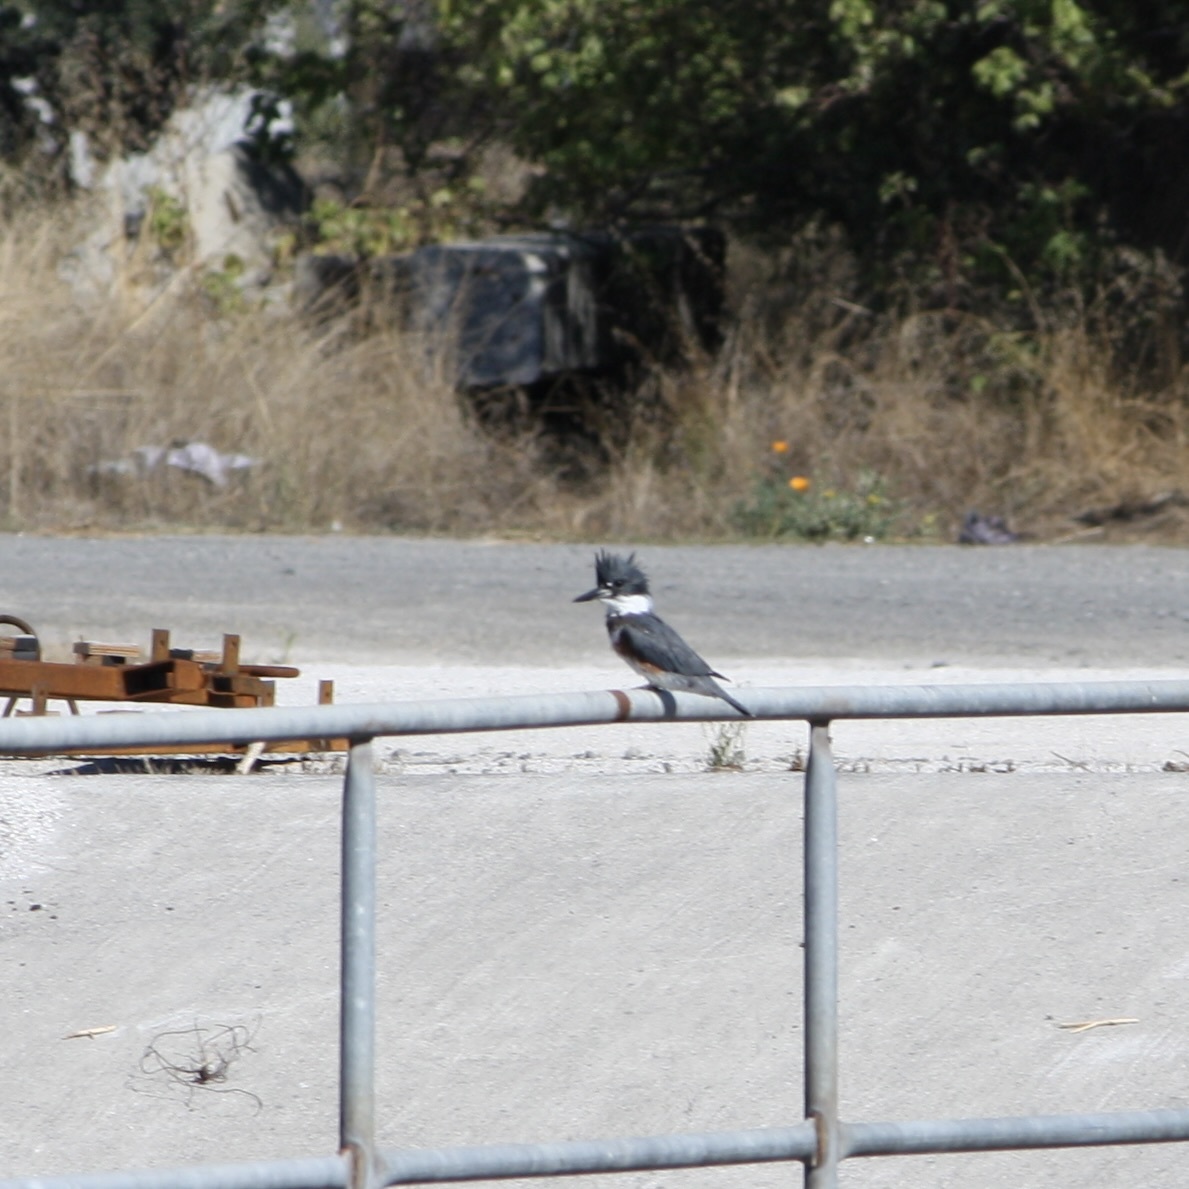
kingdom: Animalia
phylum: Chordata
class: Aves
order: Coraciiformes
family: Alcedinidae
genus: Megaceryle
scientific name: Megaceryle alcyon
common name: Belted kingfisher
